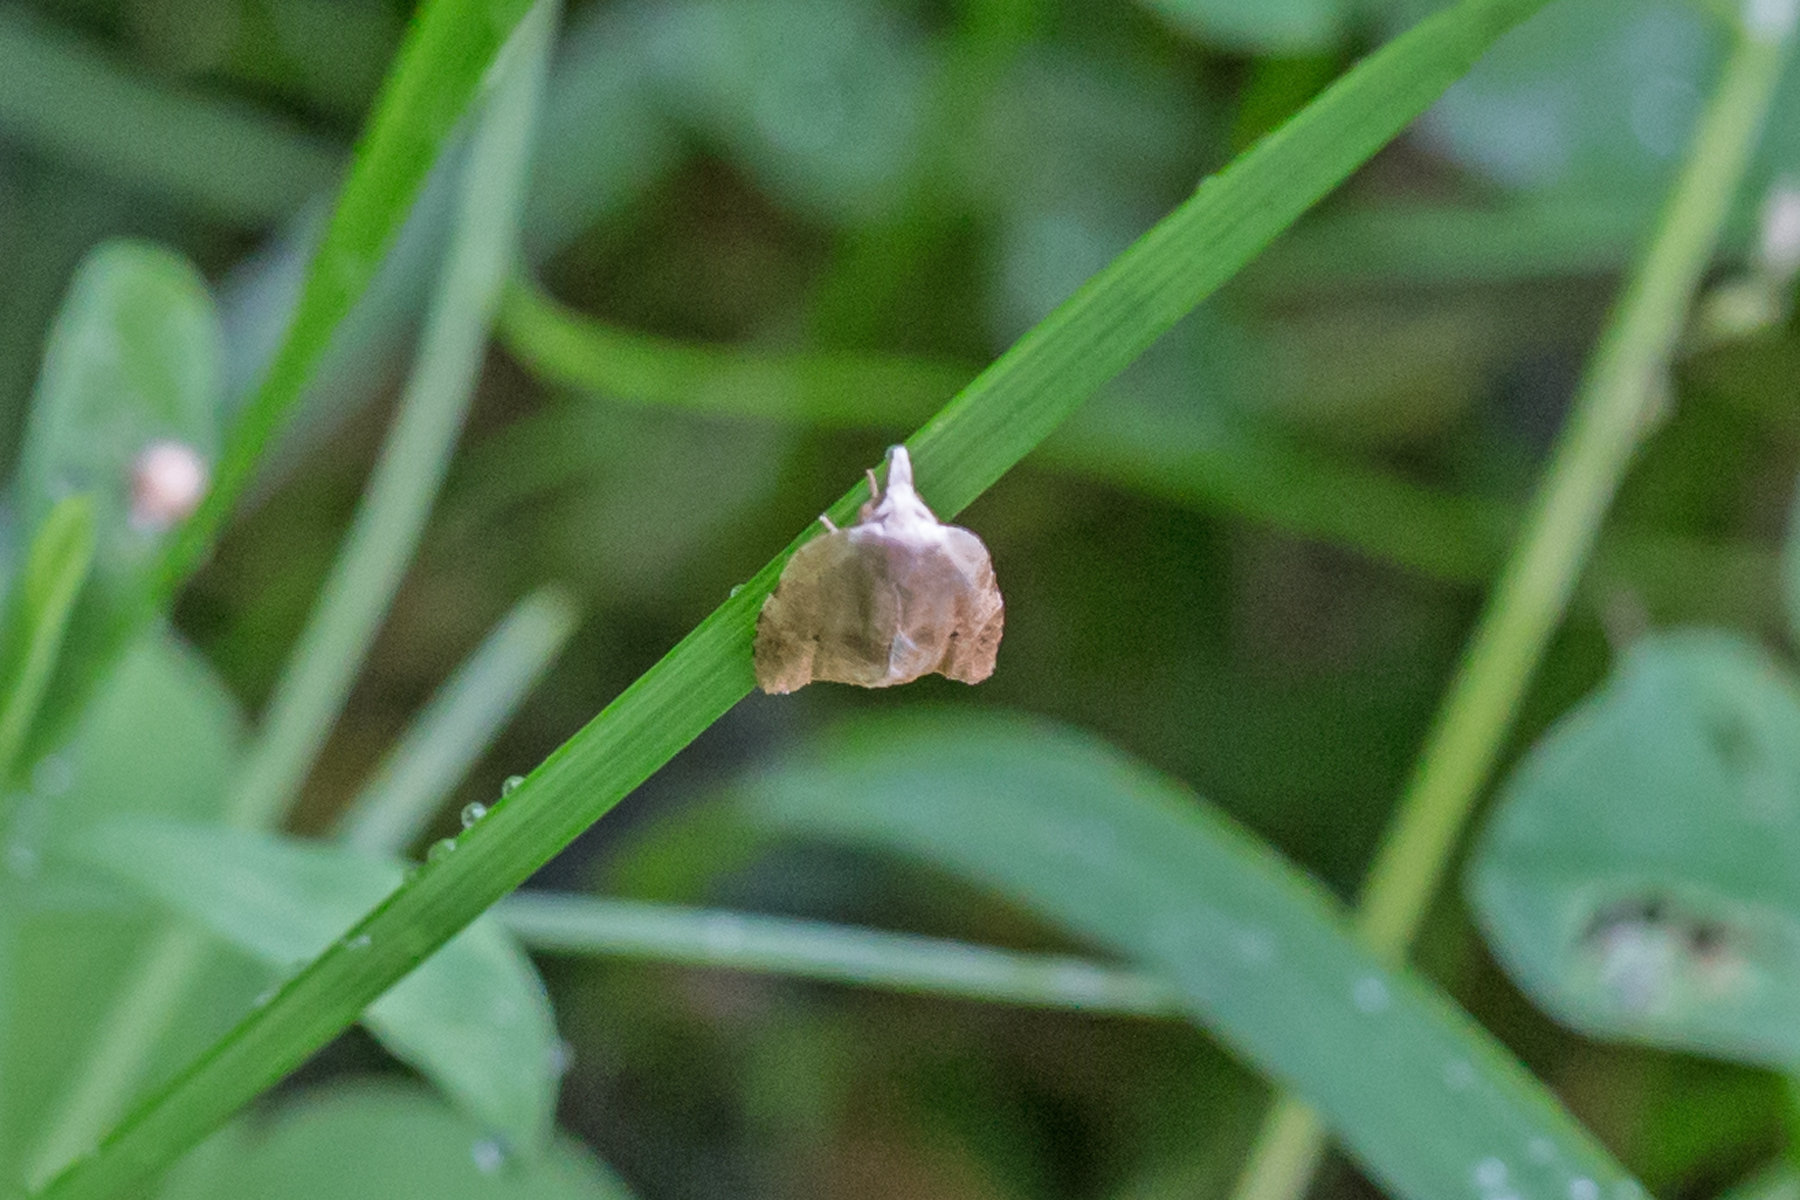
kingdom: Animalia
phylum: Arthropoda
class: Insecta
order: Lepidoptera
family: Tortricidae
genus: Coelostathma
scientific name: Coelostathma discopunctana
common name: Batman moth
